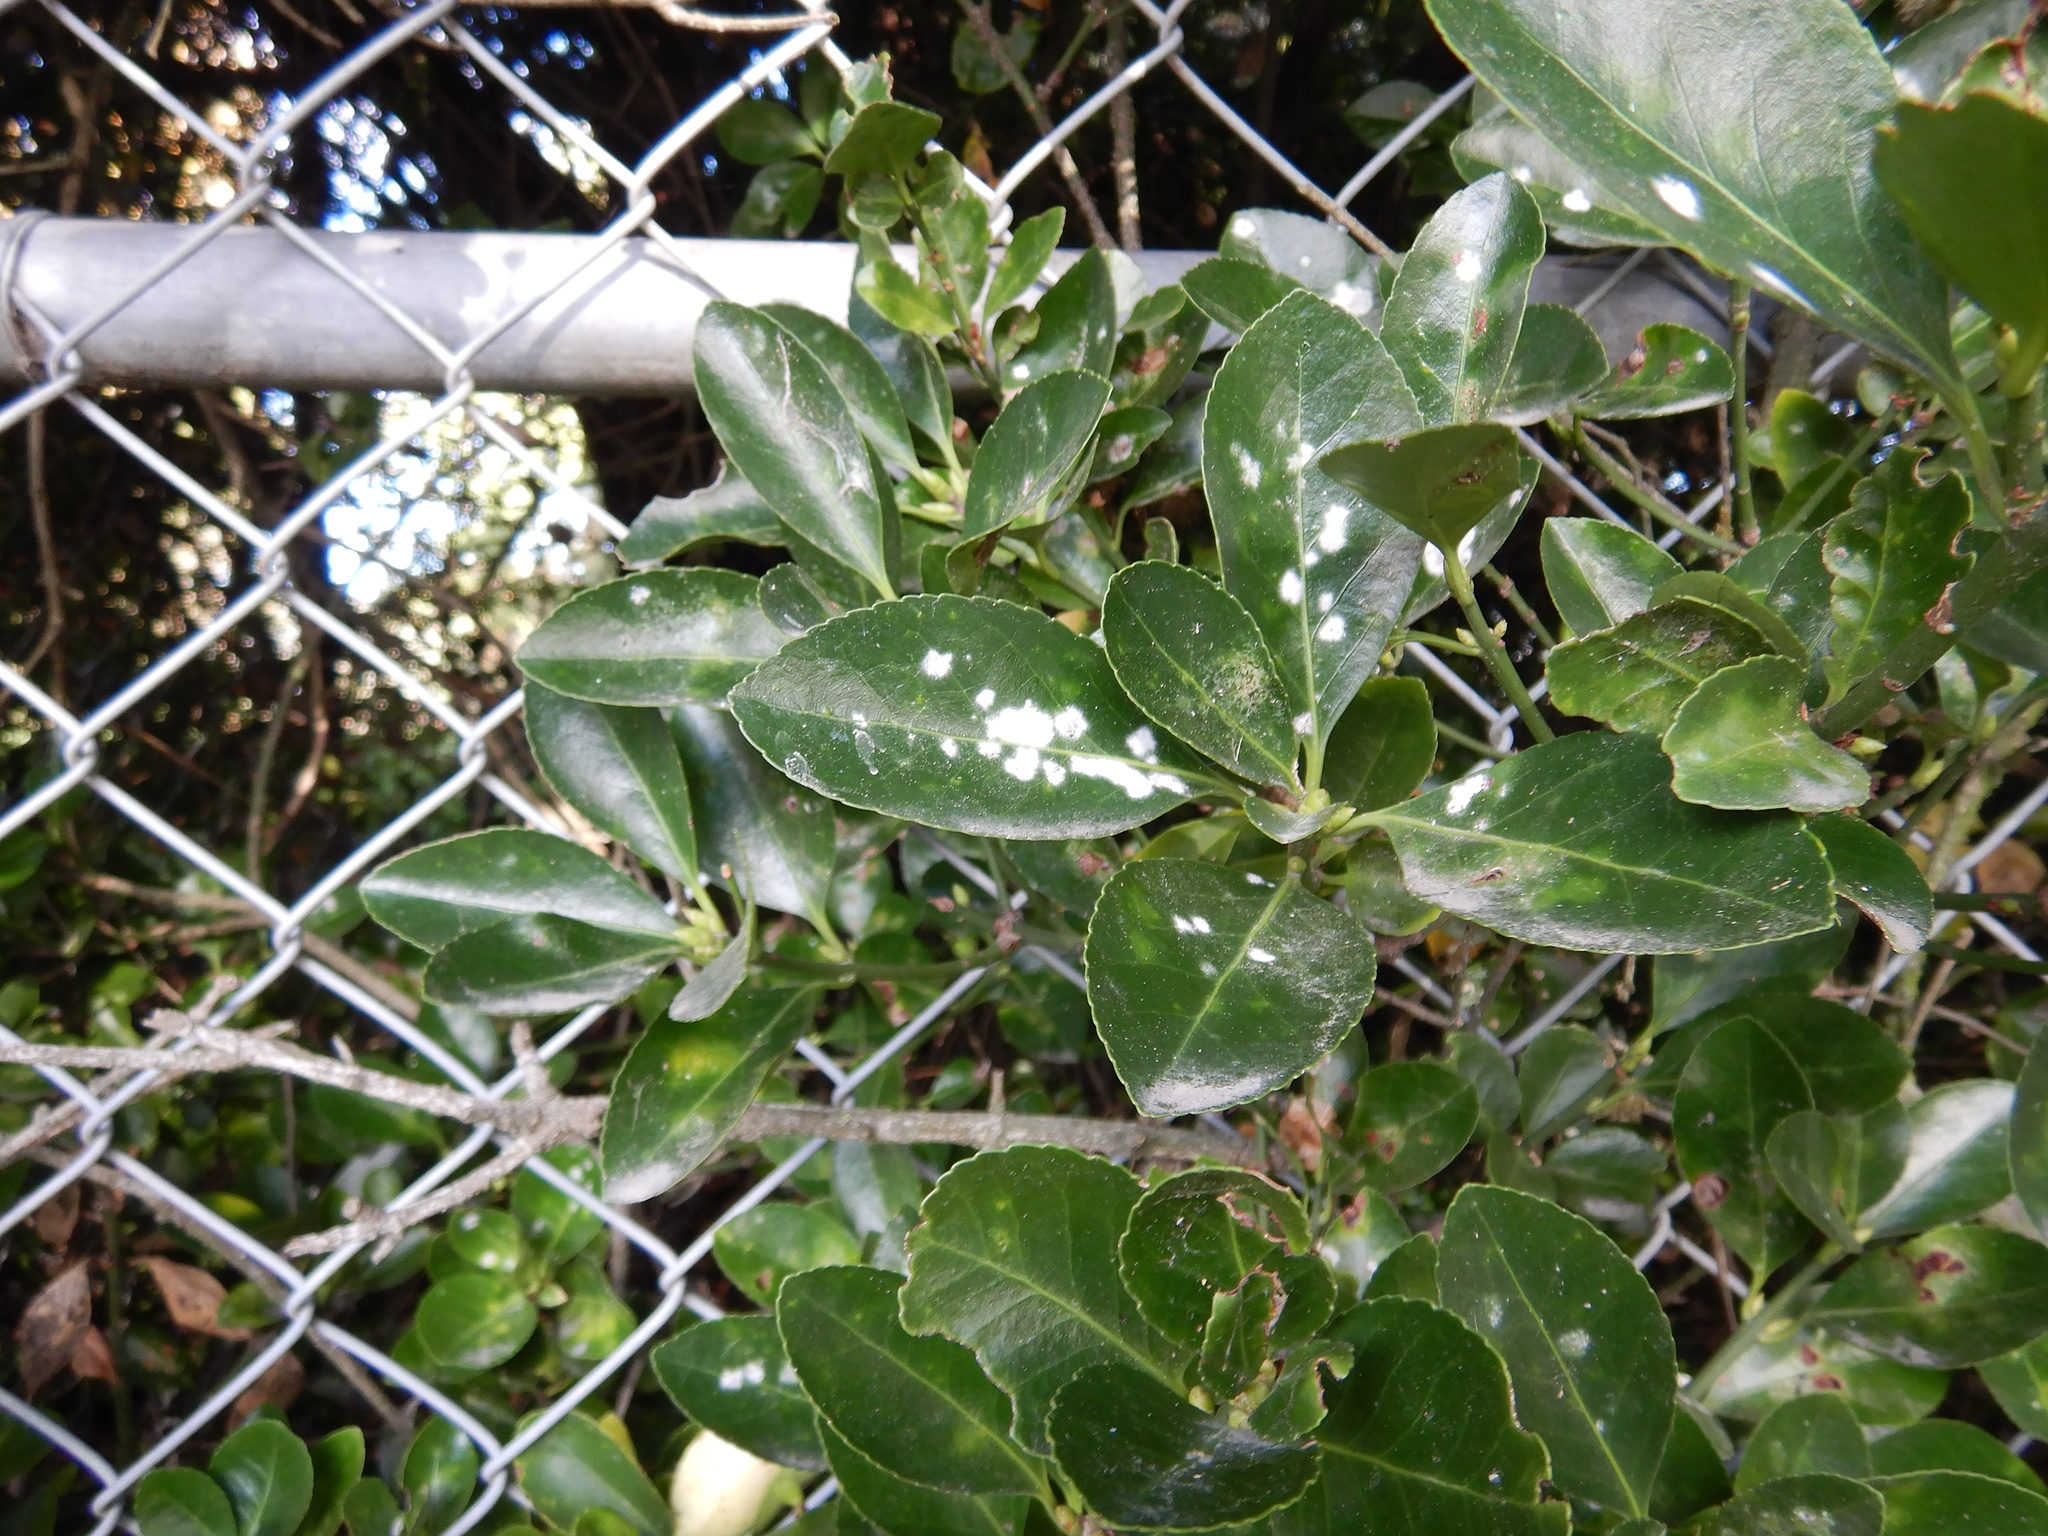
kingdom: Fungi
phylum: Ascomycota
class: Leotiomycetes
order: Helotiales
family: Erysiphaceae
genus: Erysiphe
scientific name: Erysiphe euonymicola
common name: Spindletree mildew
